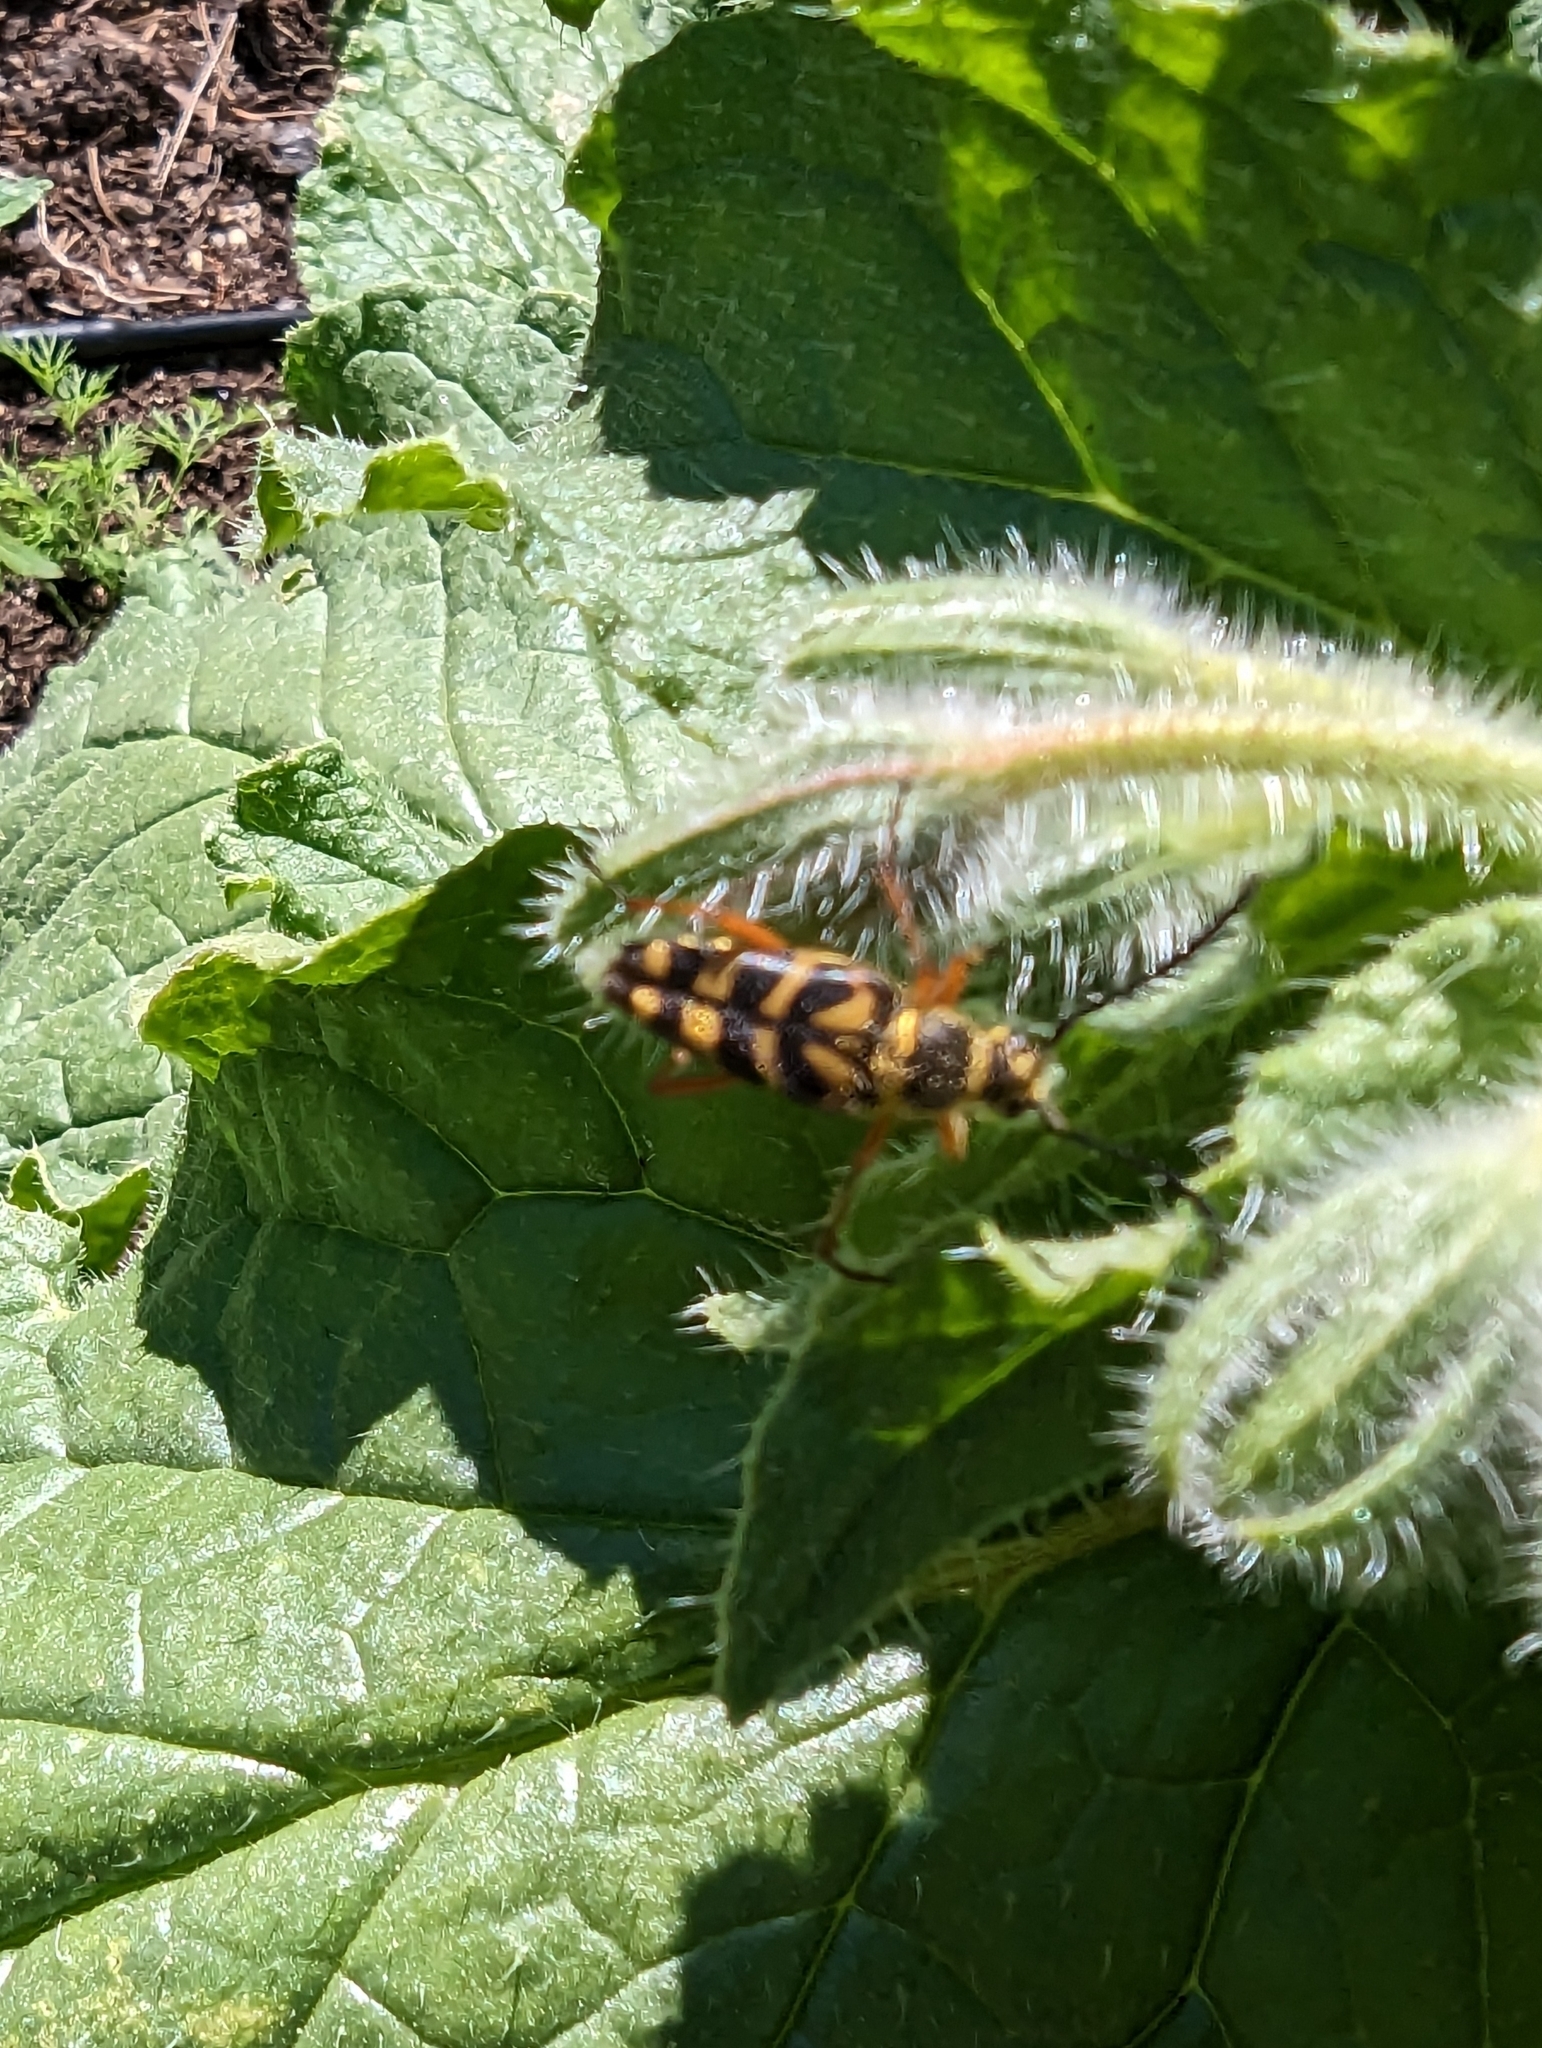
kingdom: Animalia
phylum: Arthropoda
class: Insecta
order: Coleoptera
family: Cerambycidae
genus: Typocerus
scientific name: Typocerus zebra
